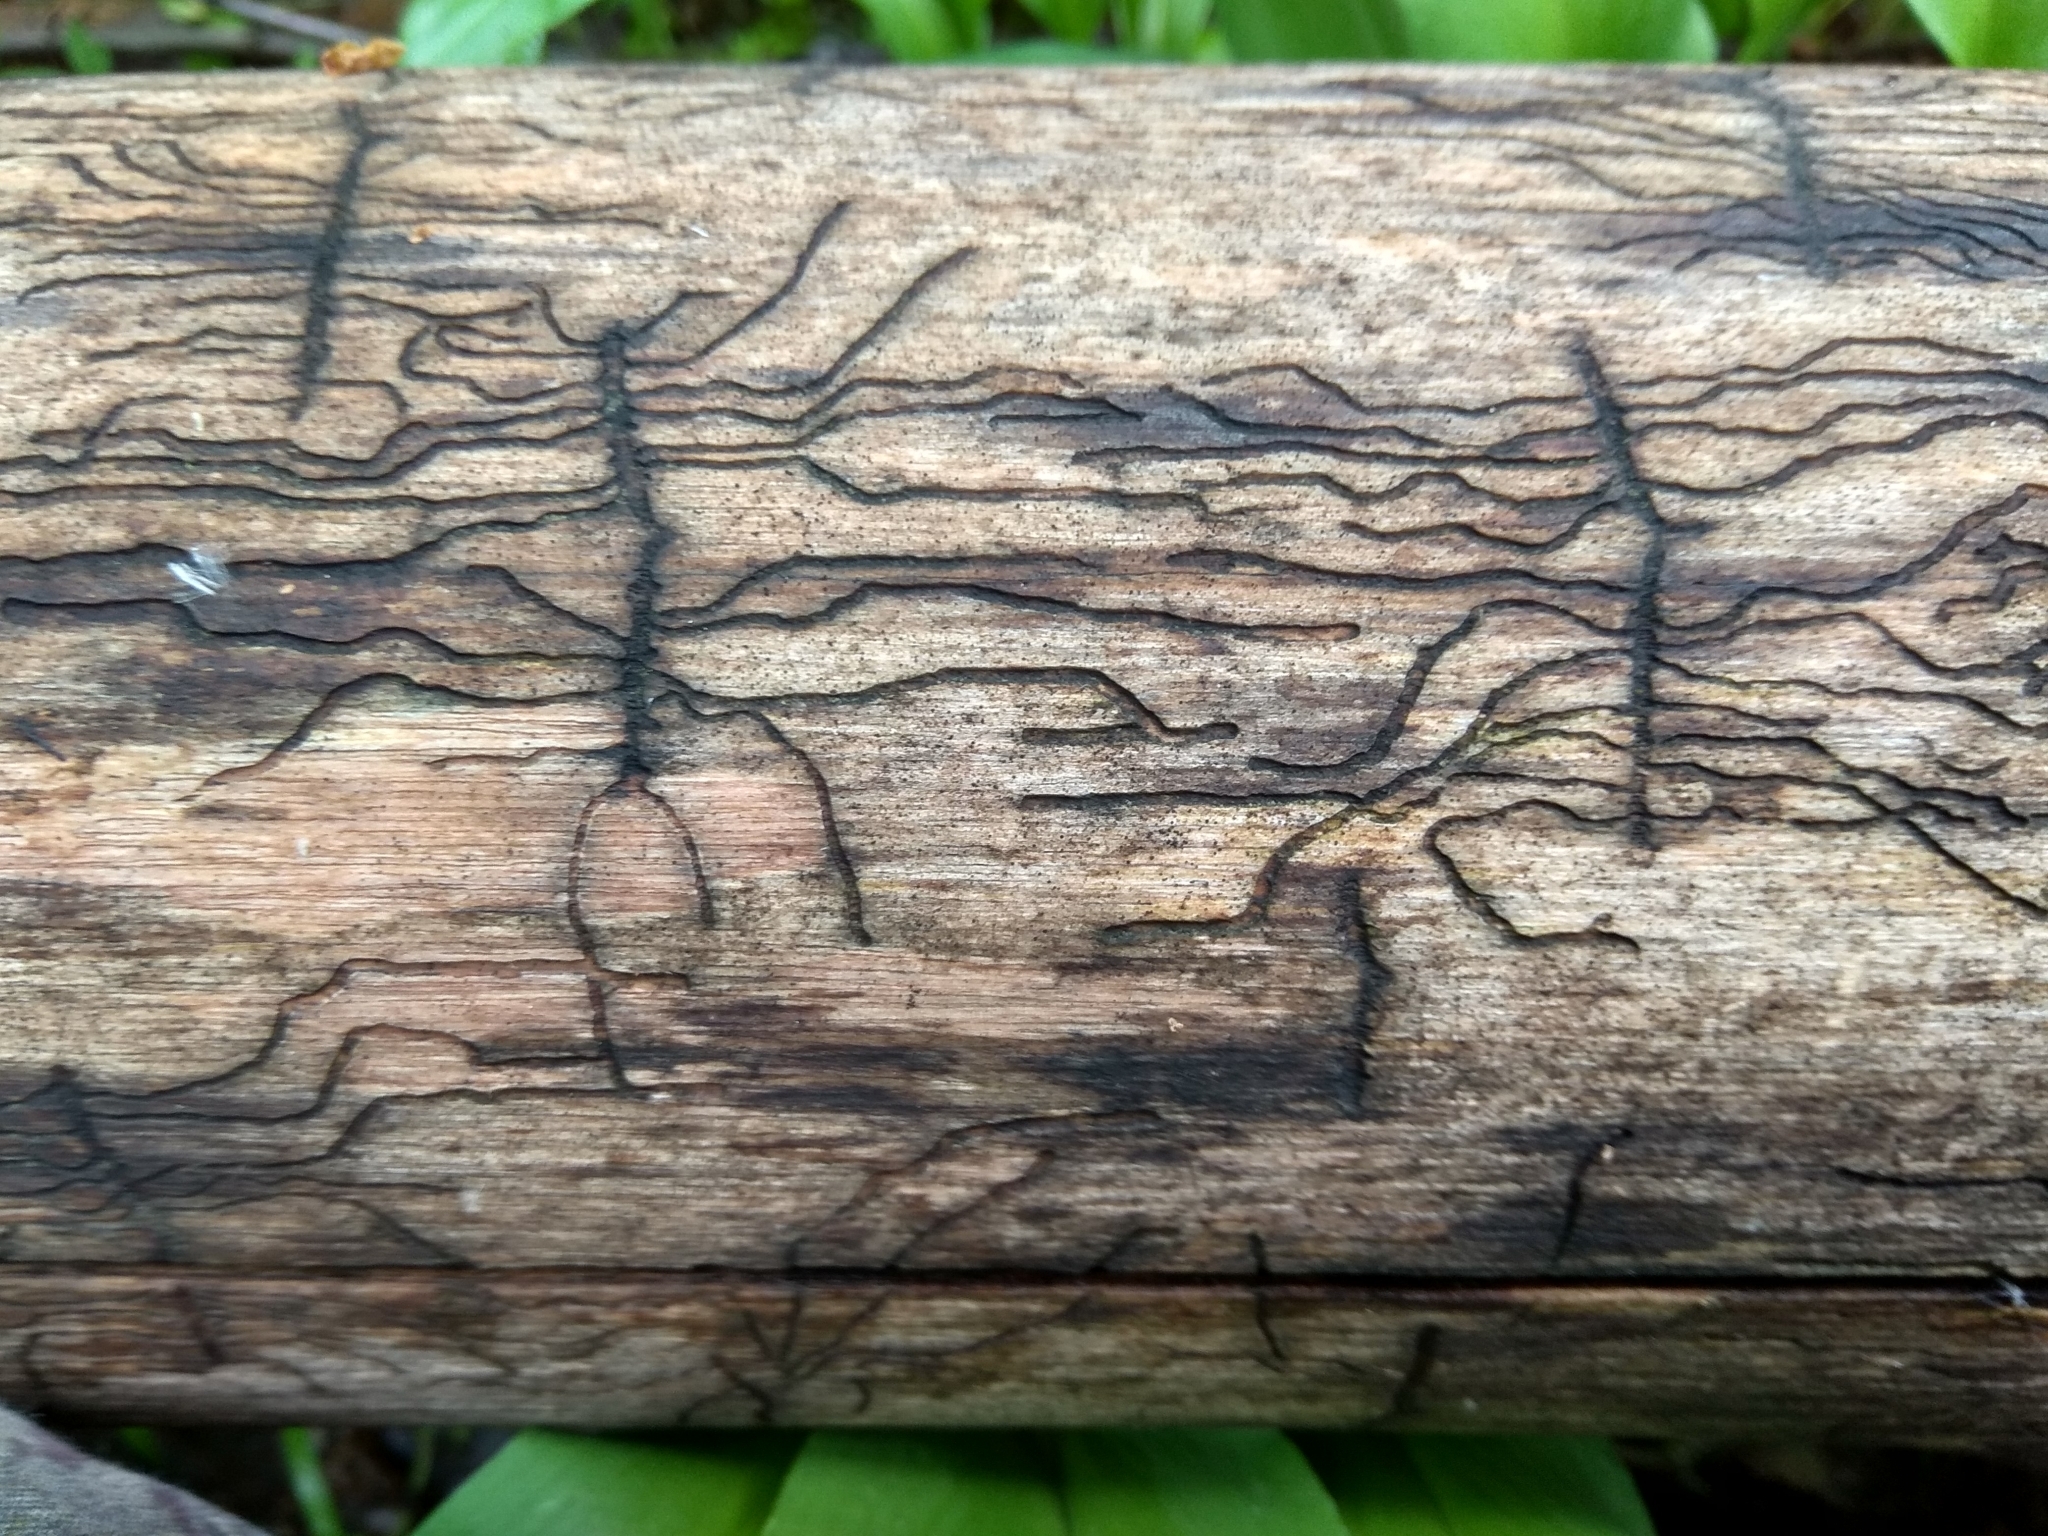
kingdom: Animalia
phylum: Arthropoda
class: Insecta
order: Coleoptera
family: Curculionidae
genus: Hylesinus
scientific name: Hylesinus varius
